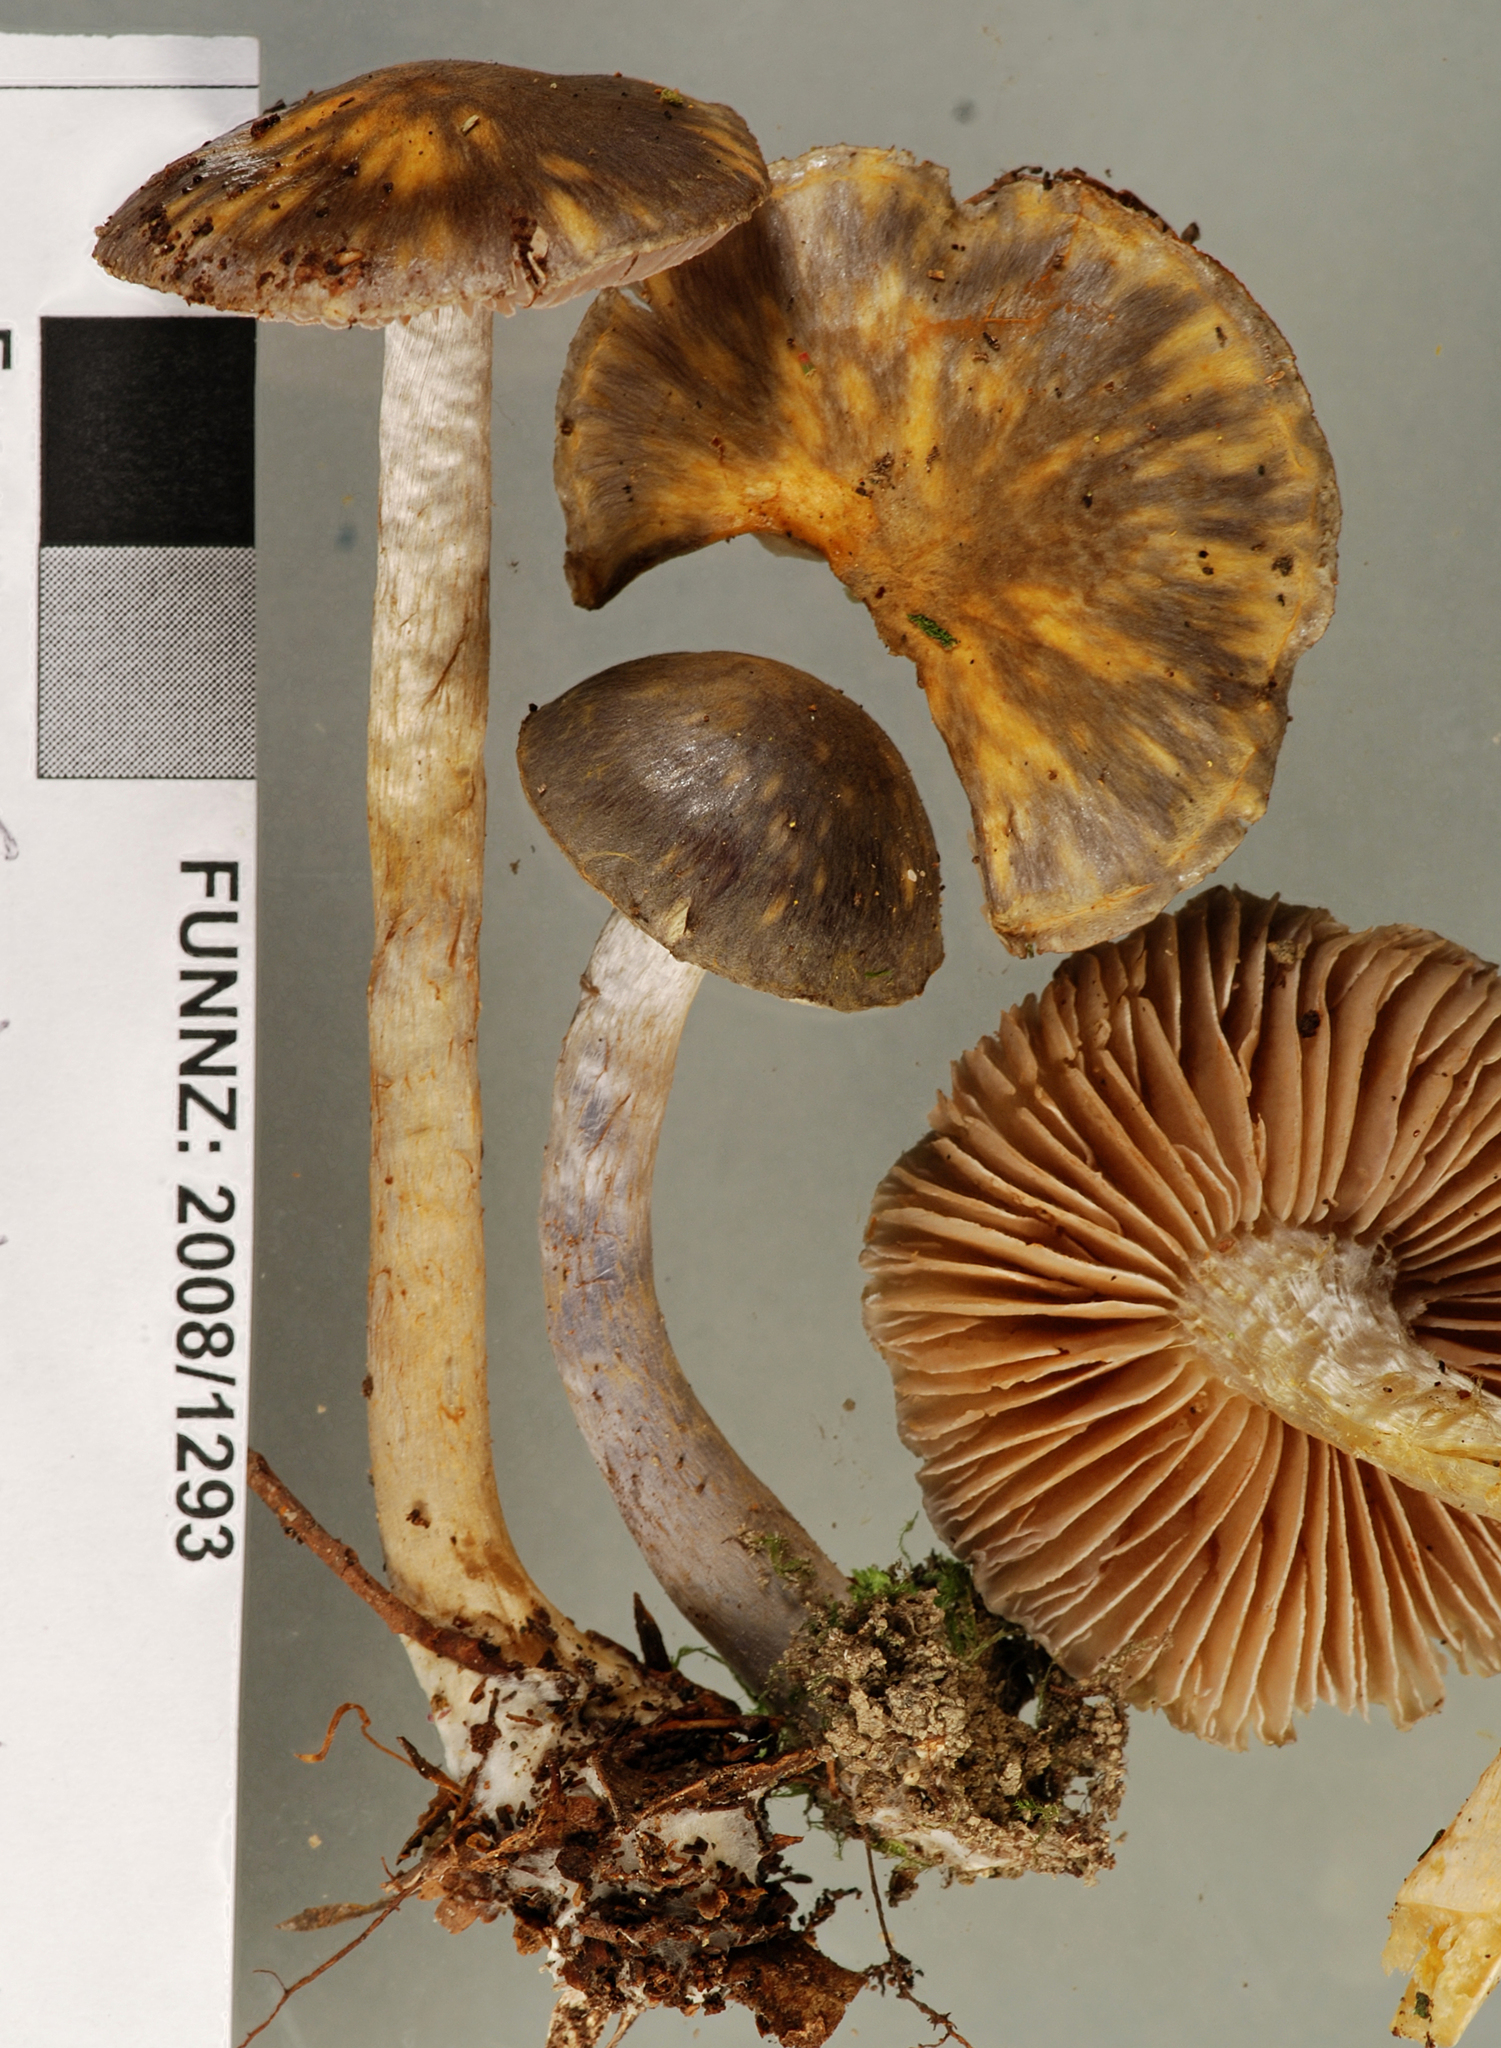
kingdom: Fungi
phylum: Basidiomycota
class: Agaricomycetes
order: Agaricales
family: Cortinariaceae
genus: Cortinarius
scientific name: Cortinarius tessiae
